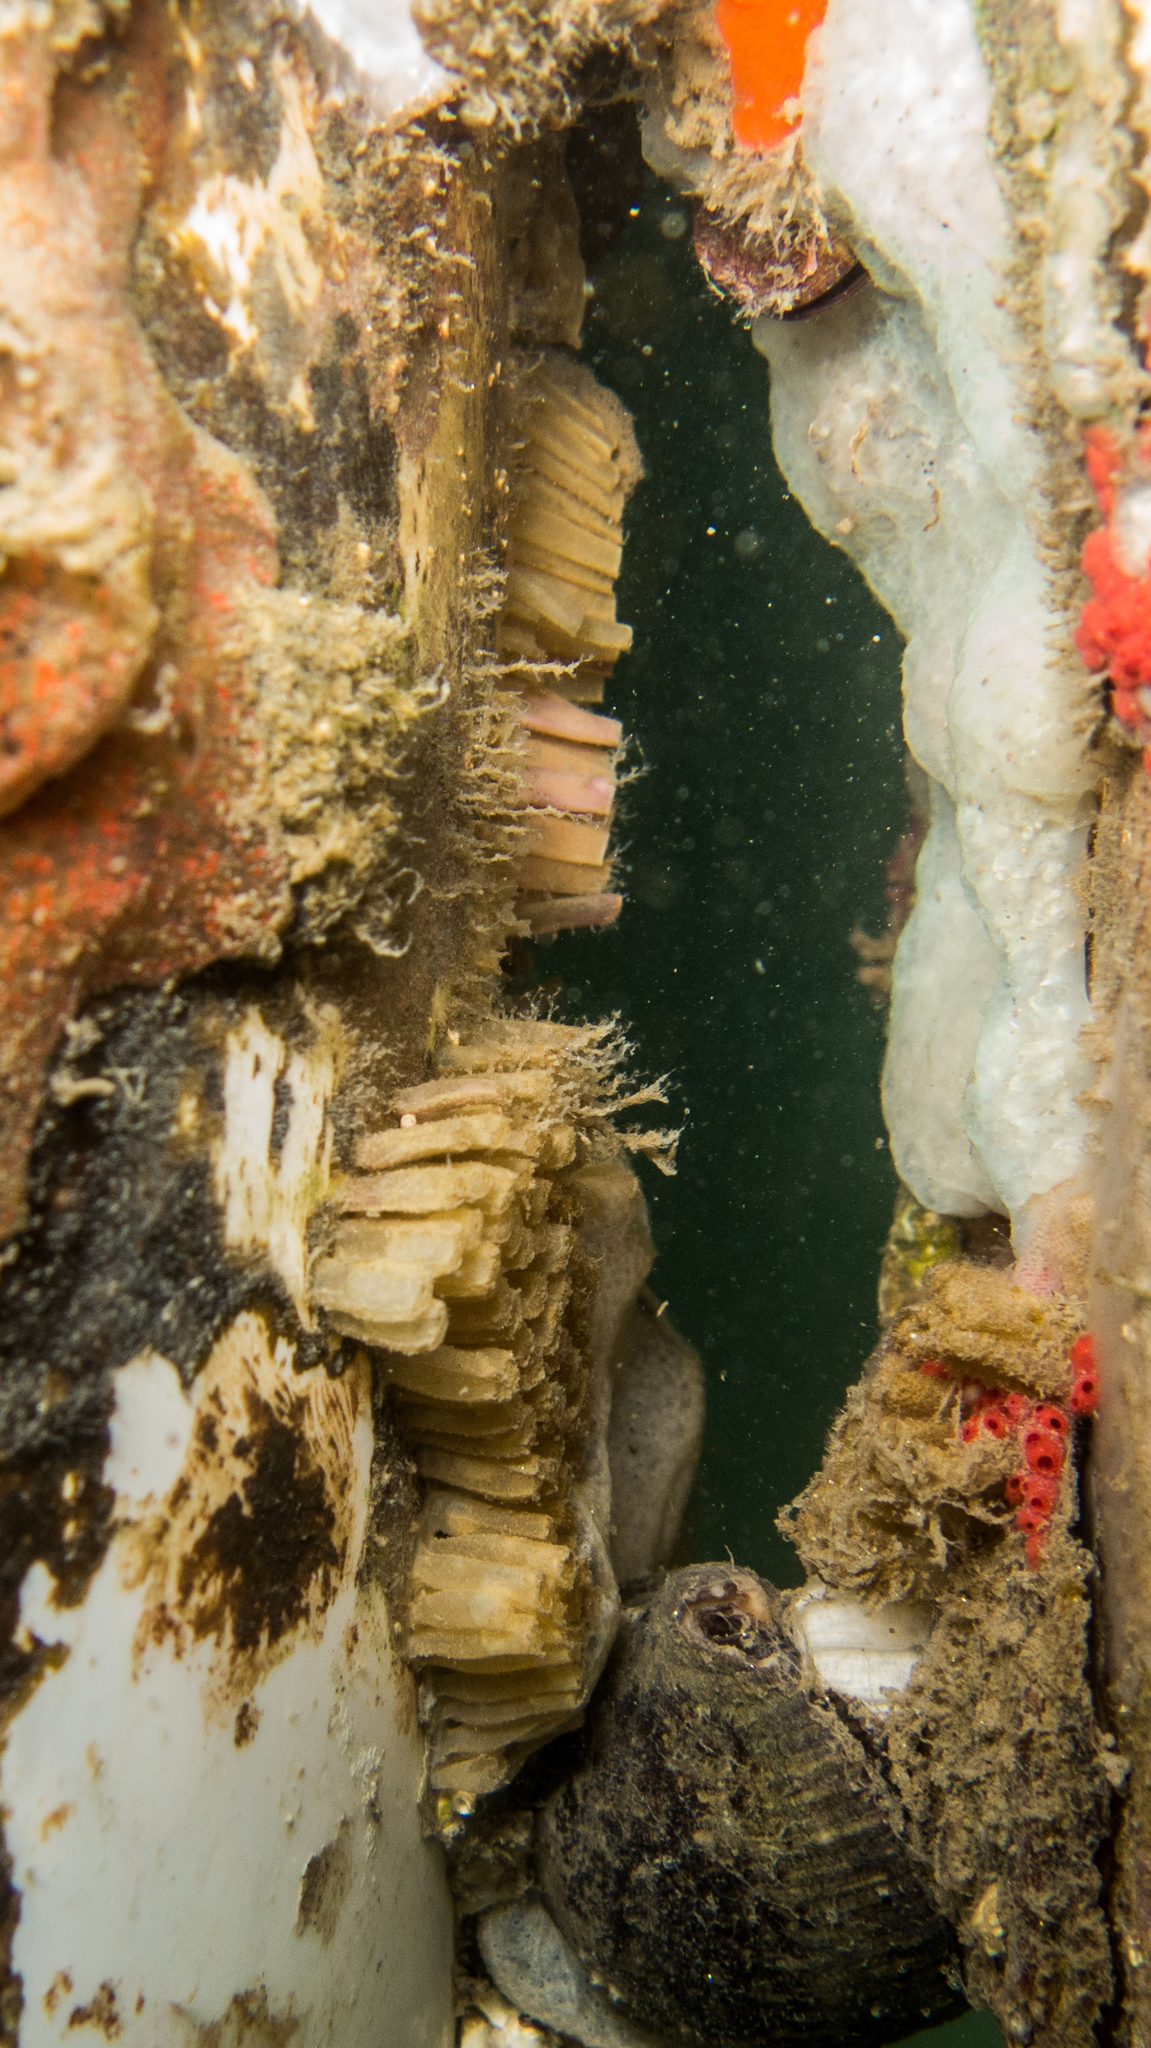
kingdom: Animalia
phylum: Chordata
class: Ascidiacea
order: Aplousobranchia
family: Polyclinidae
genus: Aplidium
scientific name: Aplidium accarense
